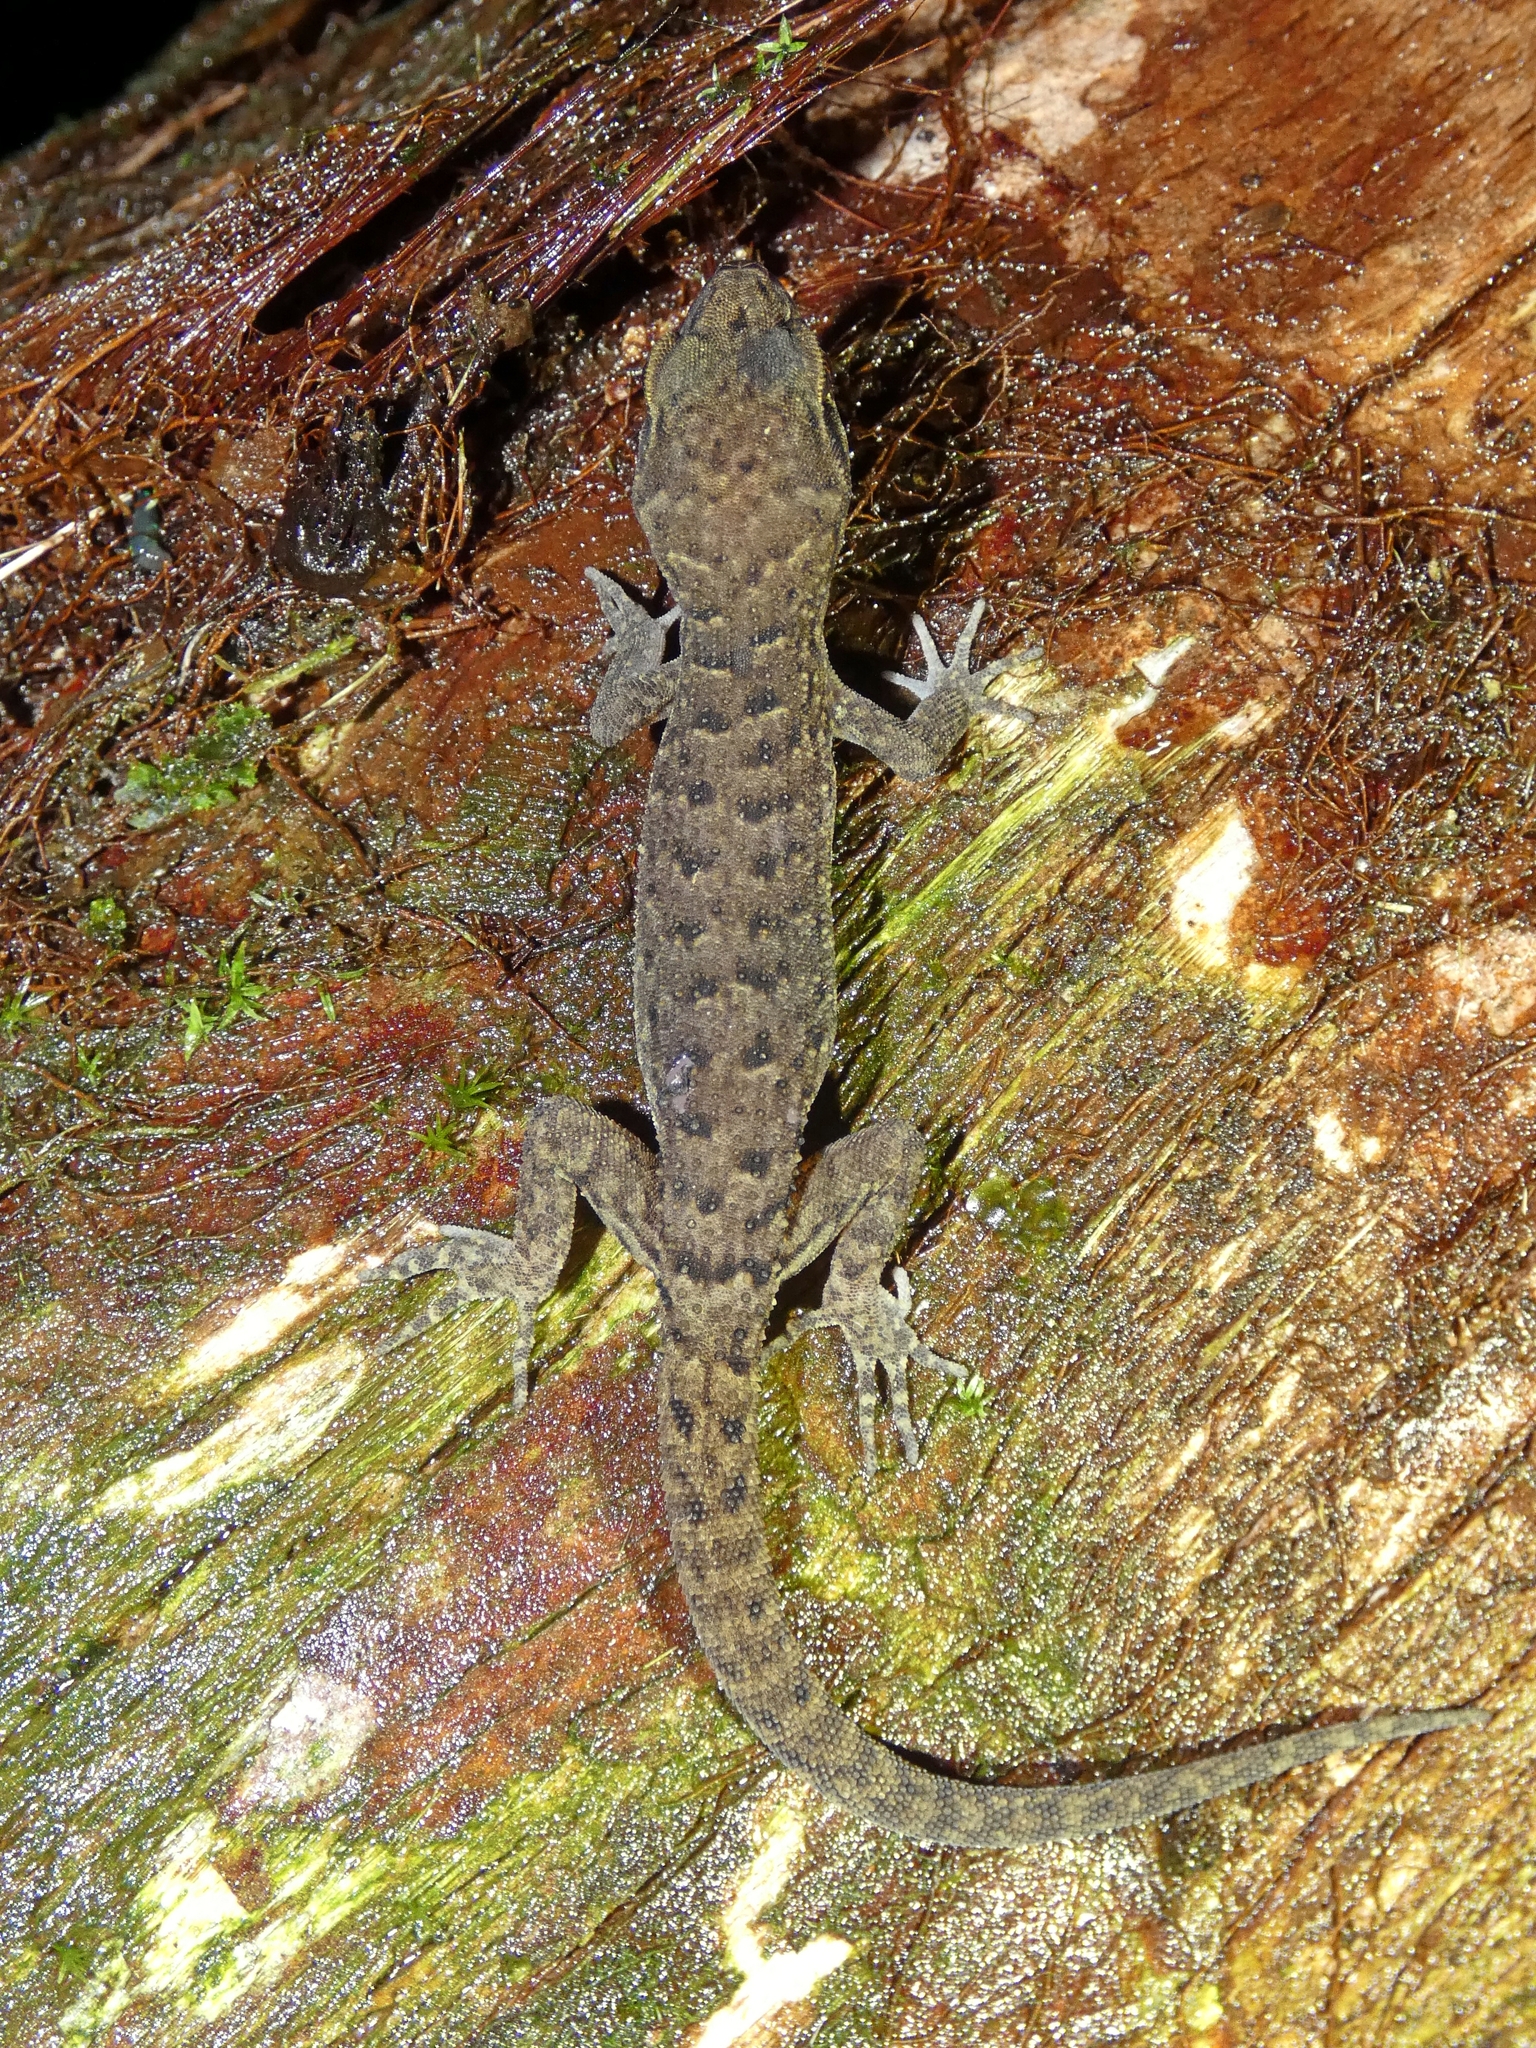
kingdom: Animalia
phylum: Chordata
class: Squamata
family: Gekkonidae
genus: Nactus
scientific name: Nactus cheverti
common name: Chevert's gecko
